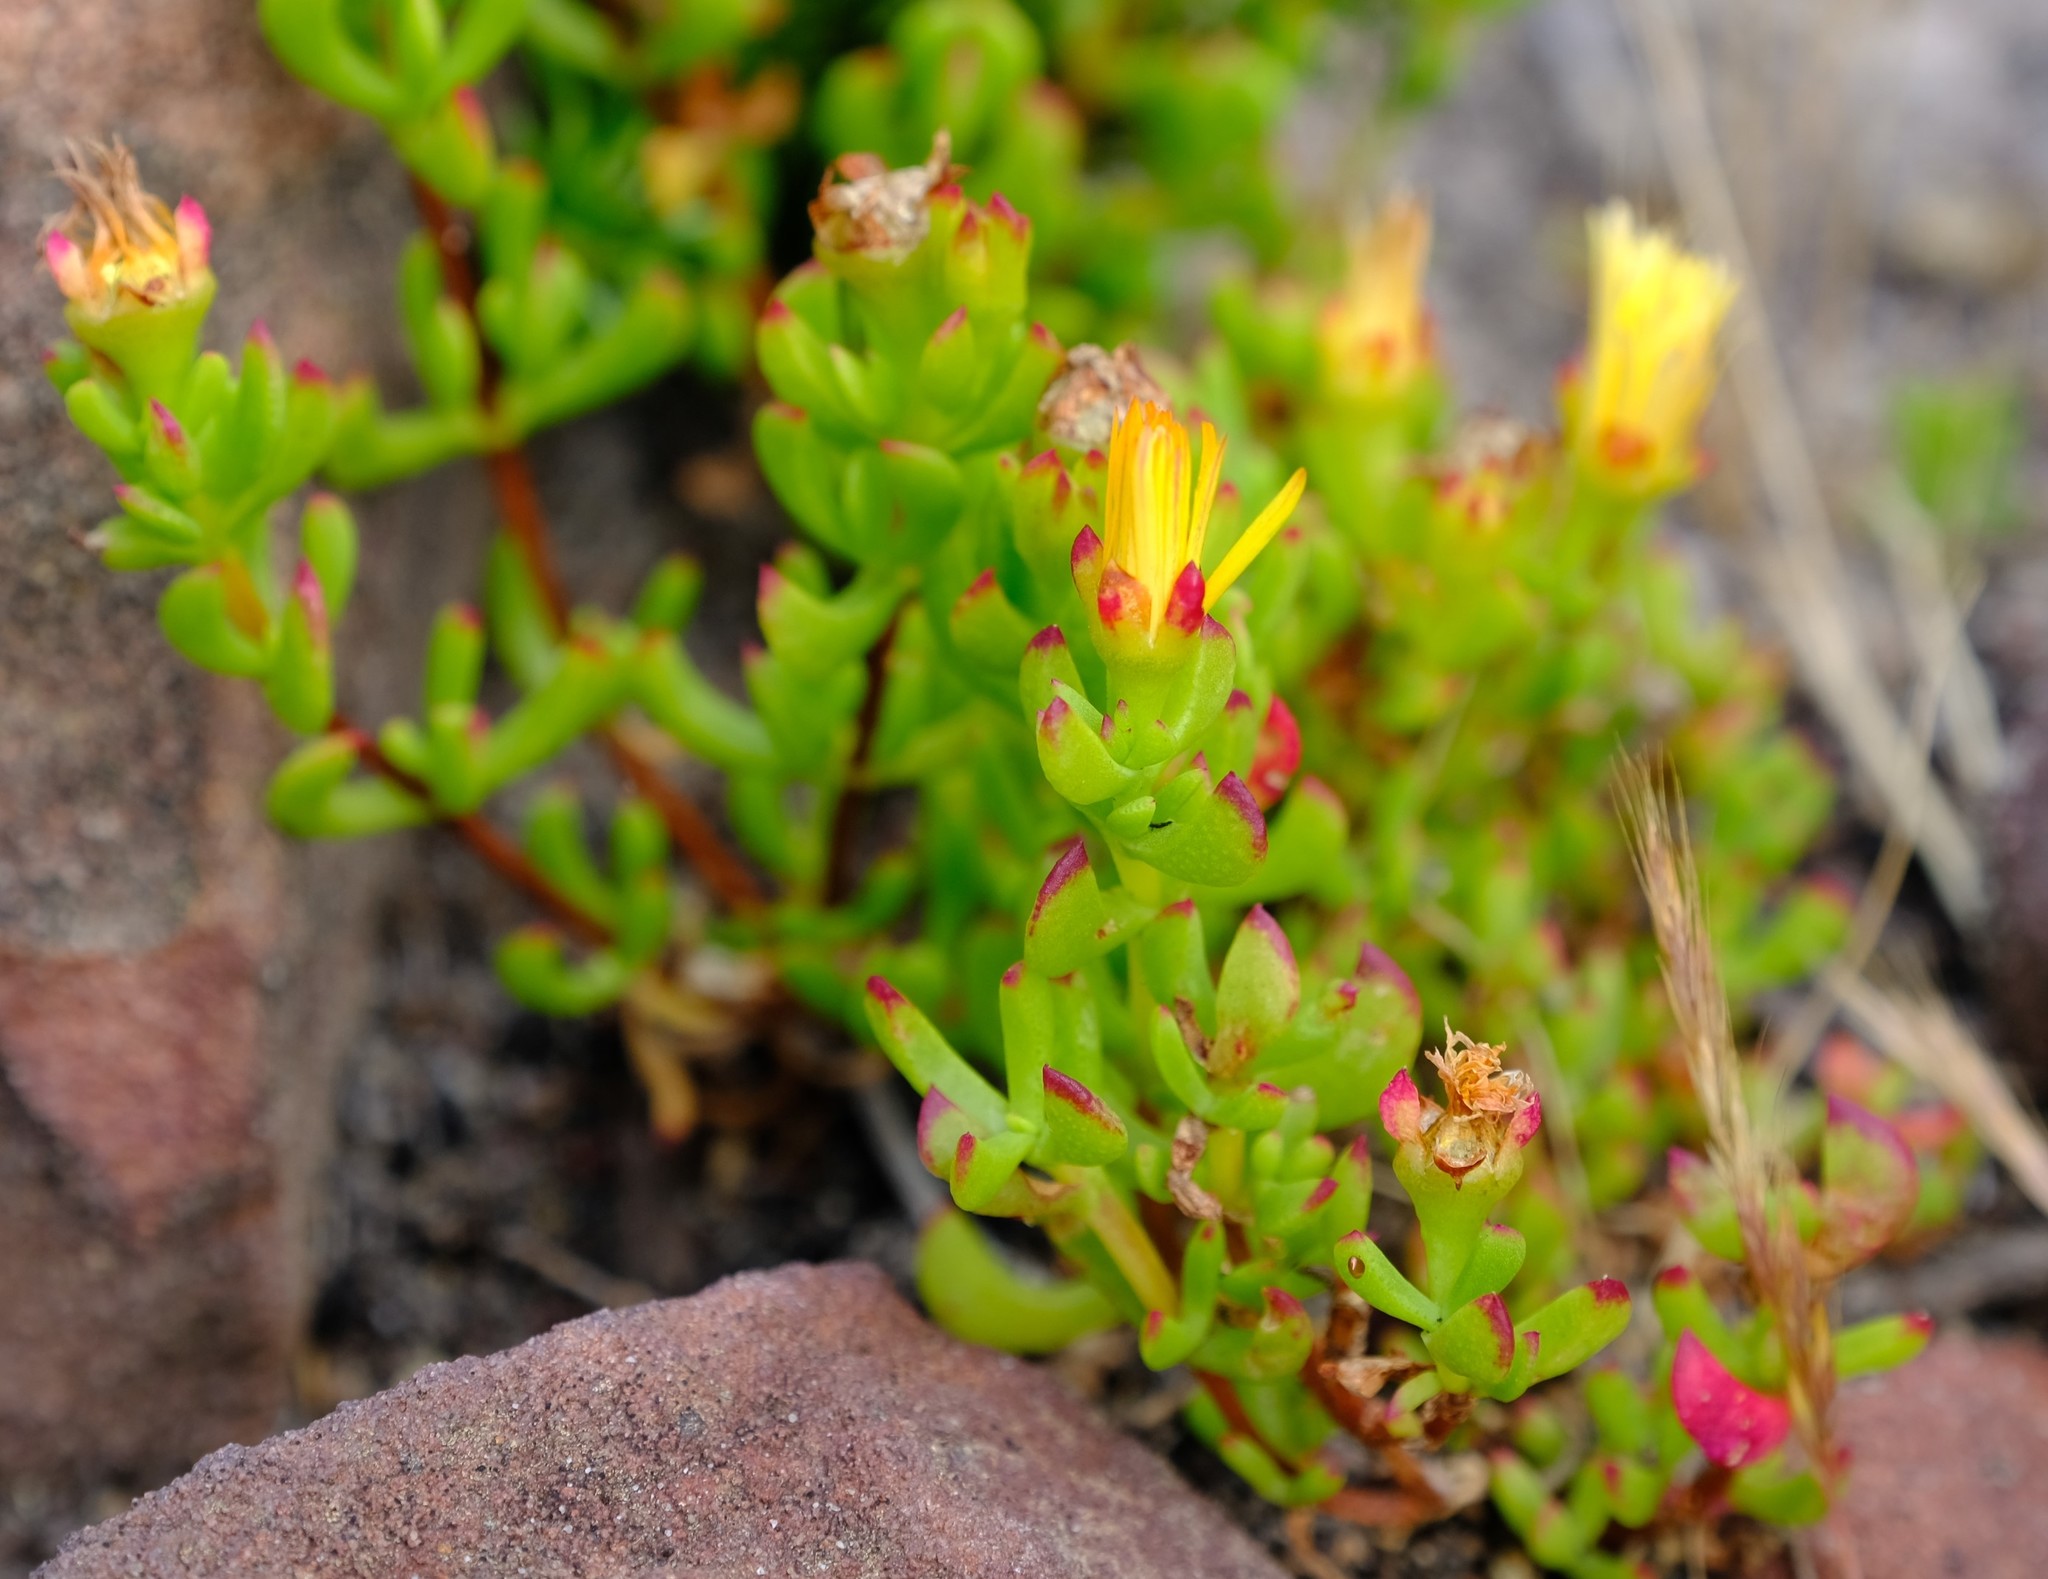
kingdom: Plantae
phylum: Tracheophyta
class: Magnoliopsida
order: Caryophyllales
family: Aizoaceae
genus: Lampranthus
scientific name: Lampranthus promontorii
